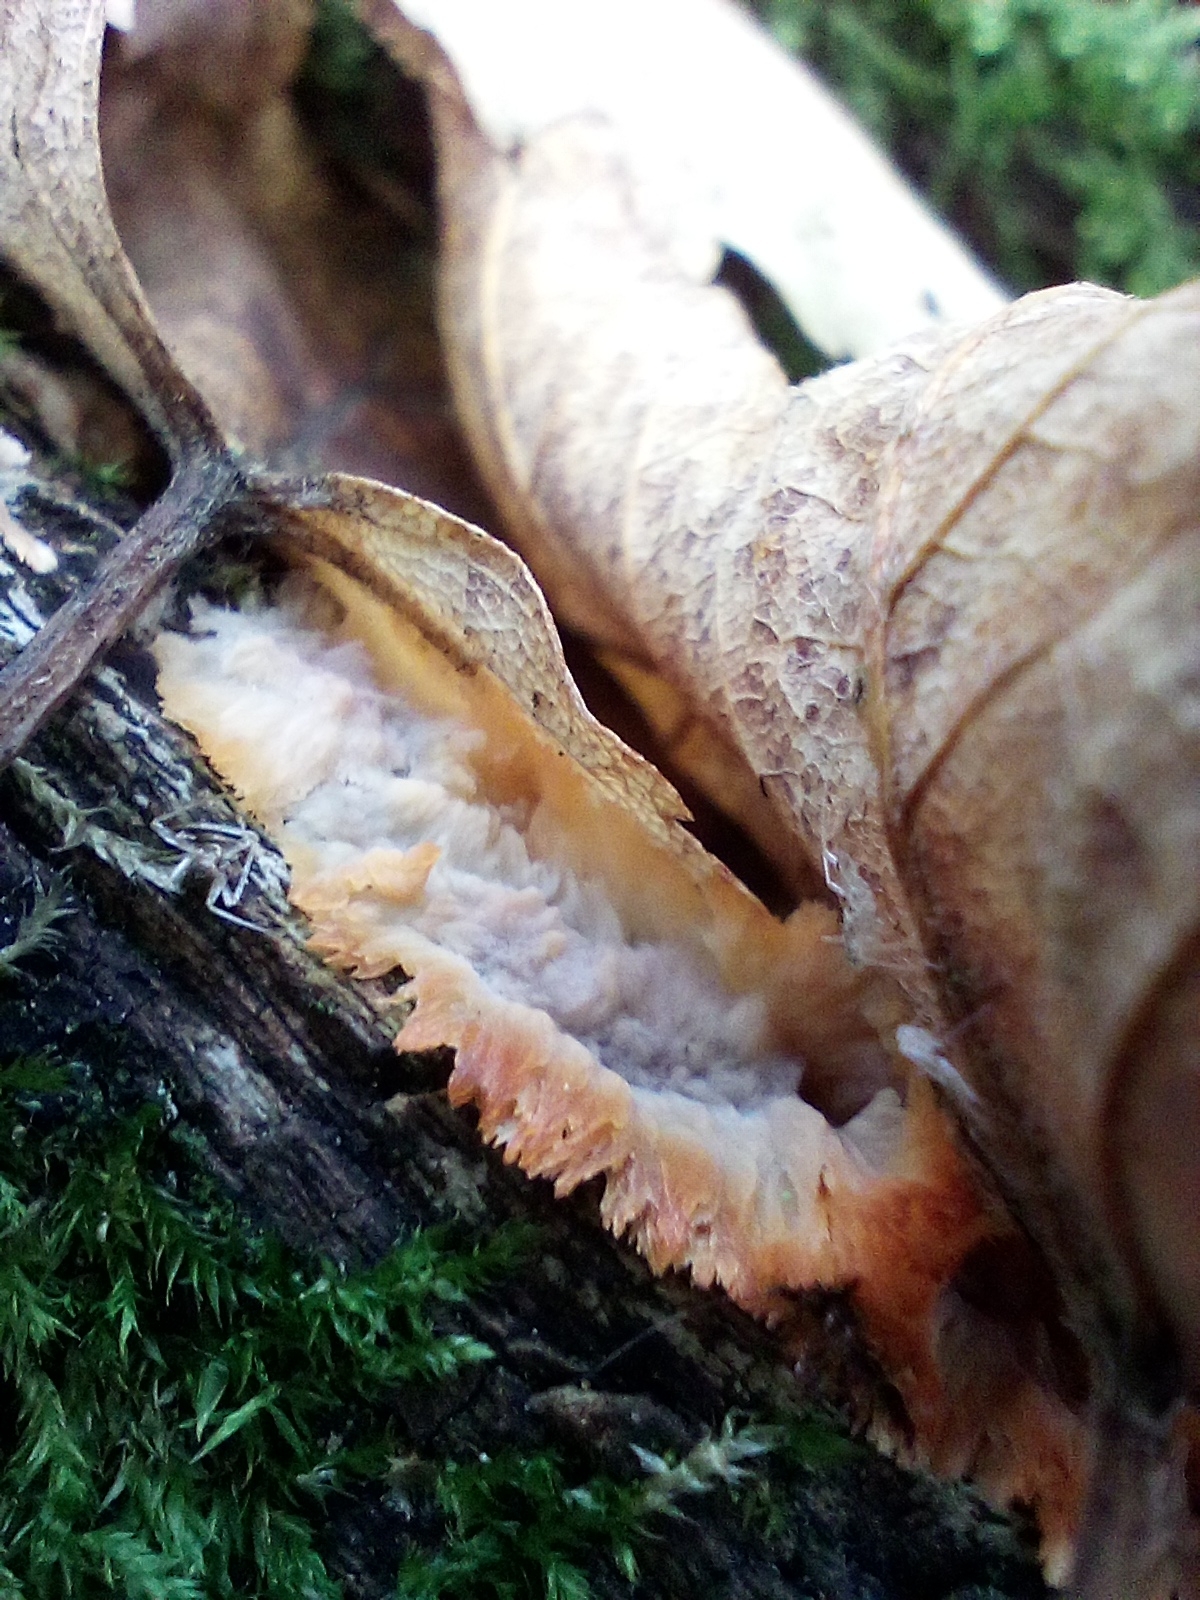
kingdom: Fungi
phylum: Basidiomycota
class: Agaricomycetes
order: Polyporales
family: Meruliaceae
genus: Phlebia
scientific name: Phlebia radiata
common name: Wrinkled crust
